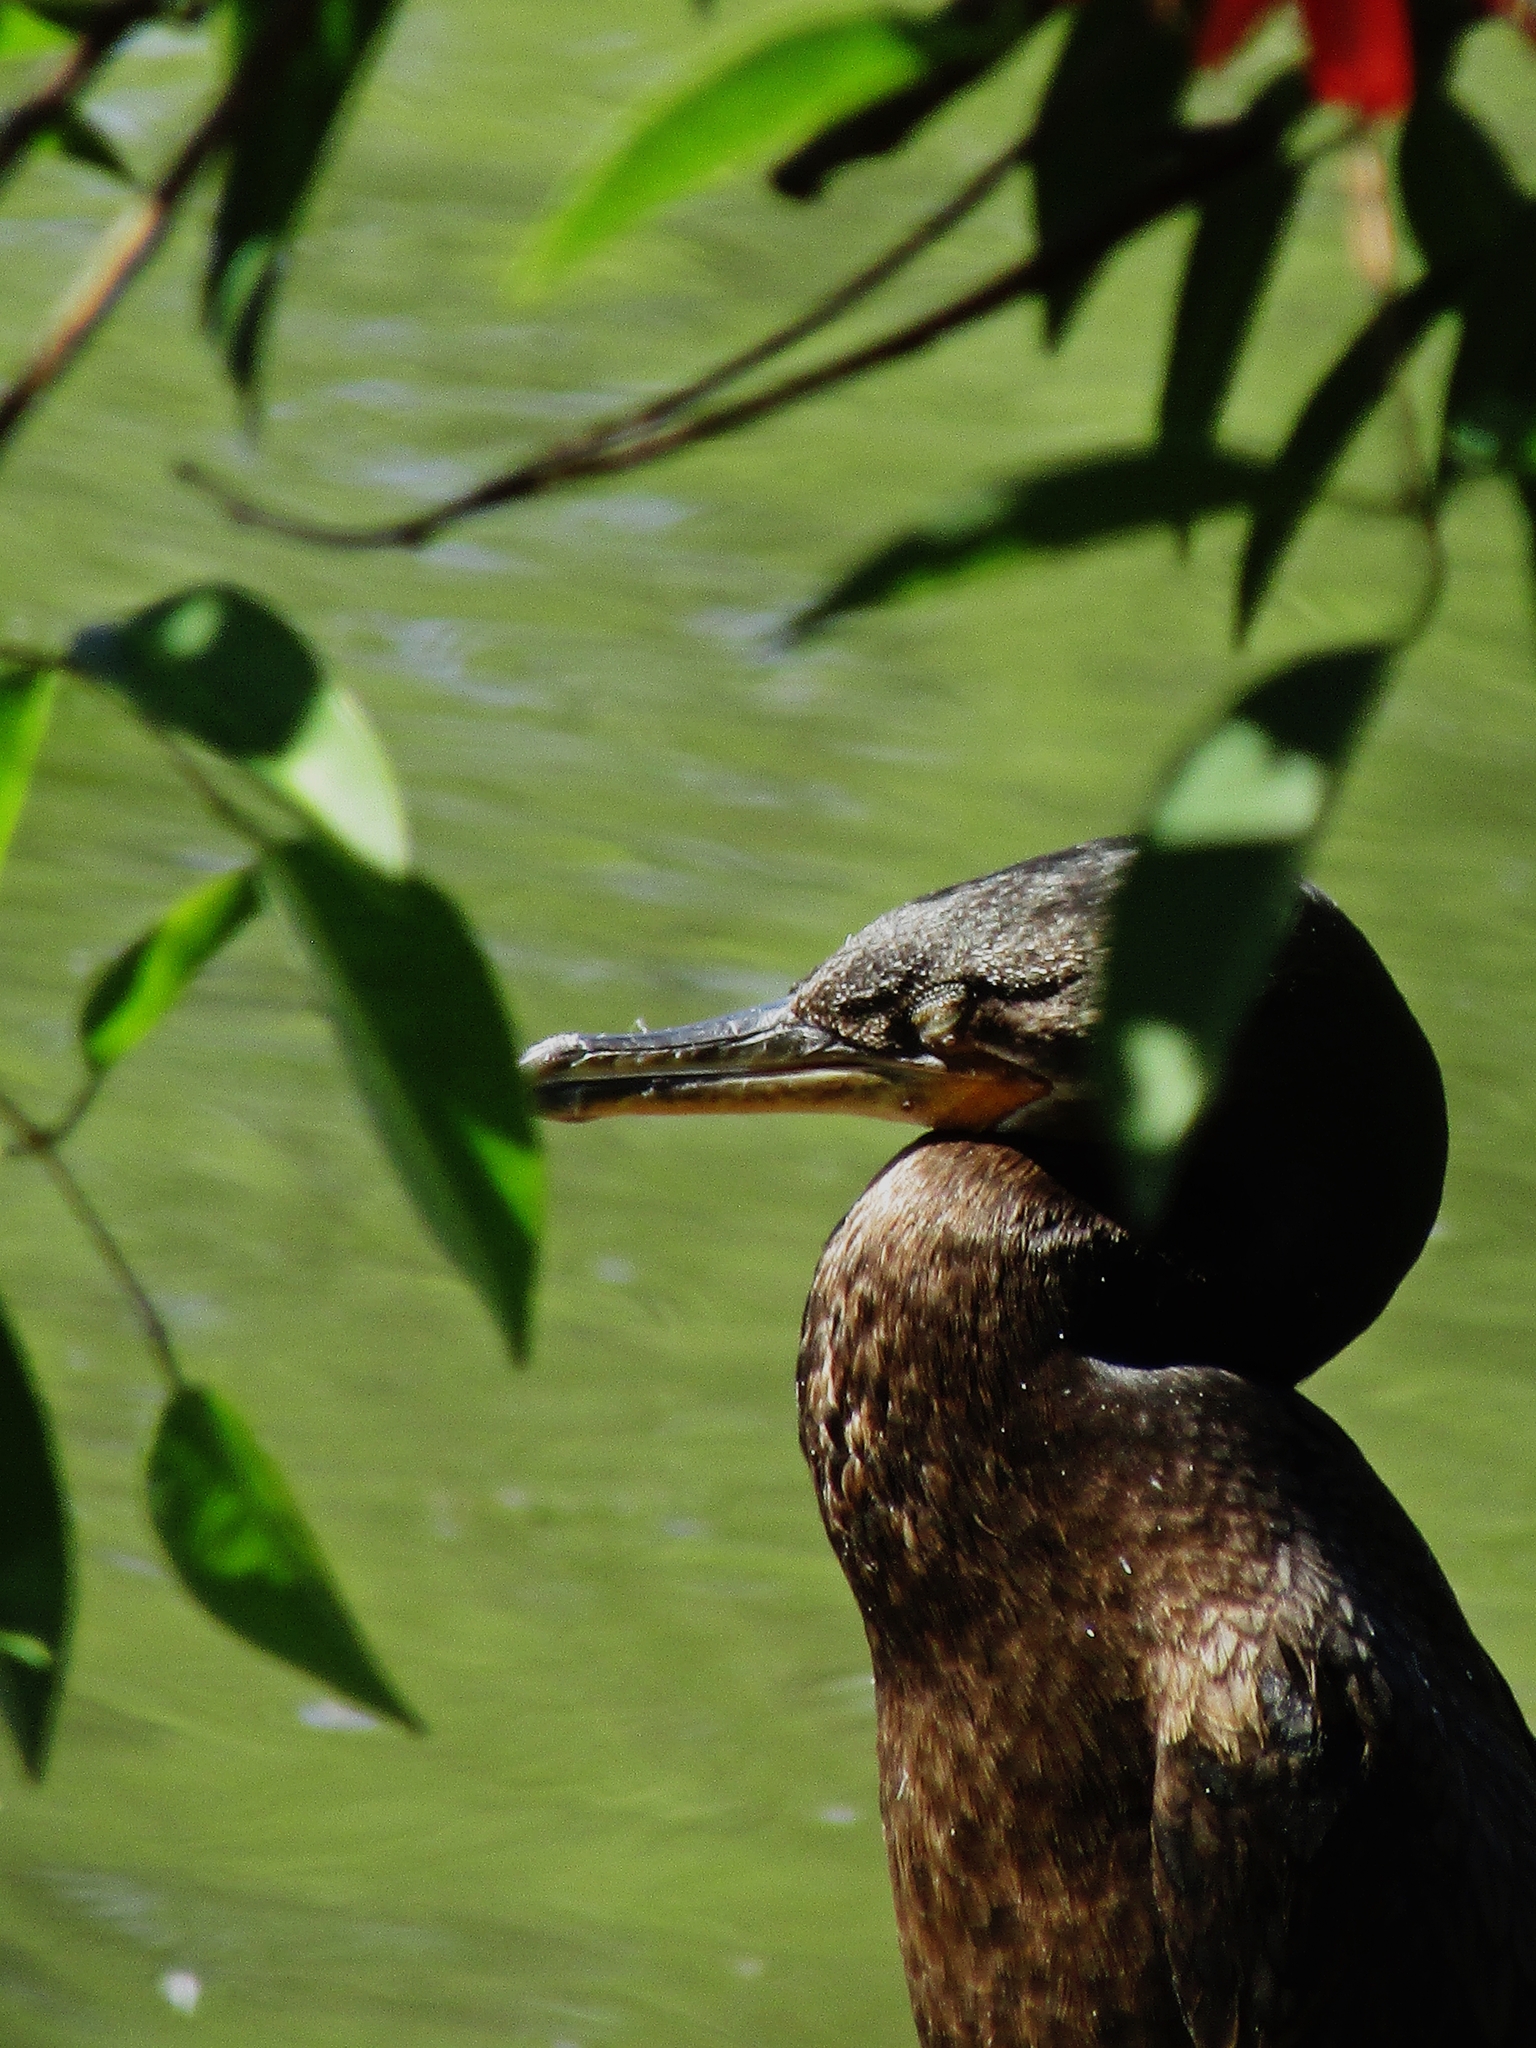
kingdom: Animalia
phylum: Chordata
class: Aves
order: Suliformes
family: Phalacrocoracidae
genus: Phalacrocorax
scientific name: Phalacrocorax brasilianus
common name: Neotropic cormorant
